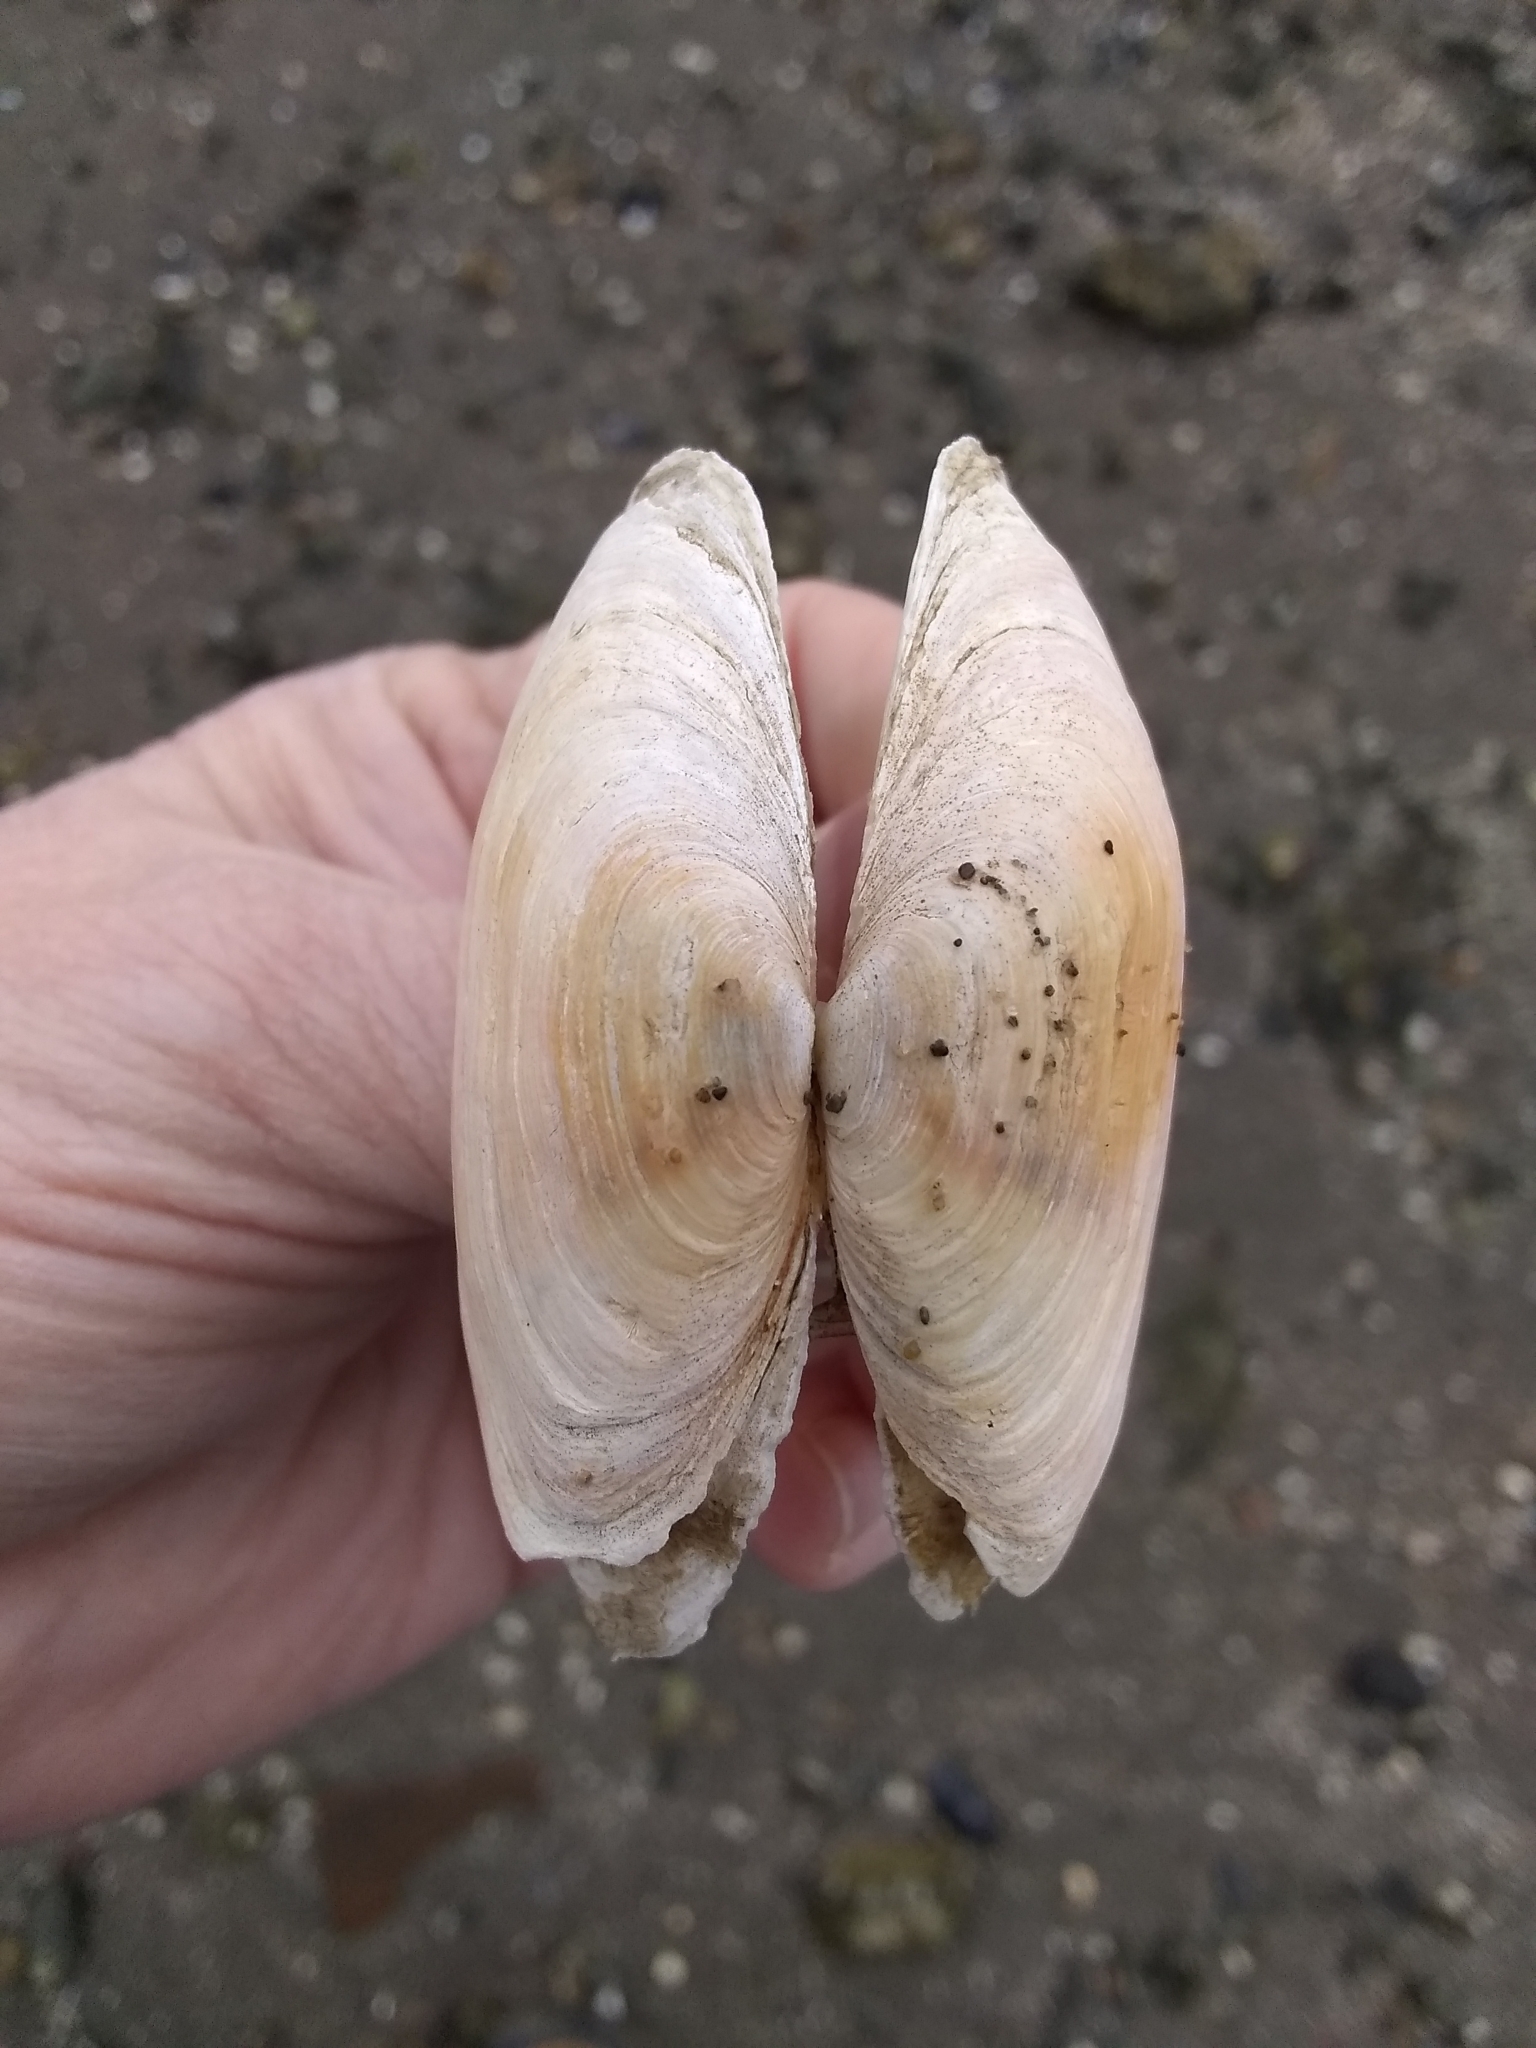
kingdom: Animalia
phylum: Mollusca
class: Bivalvia
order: Myida
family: Myidae
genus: Mya
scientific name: Mya arenaria
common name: Soft-shelled clam
